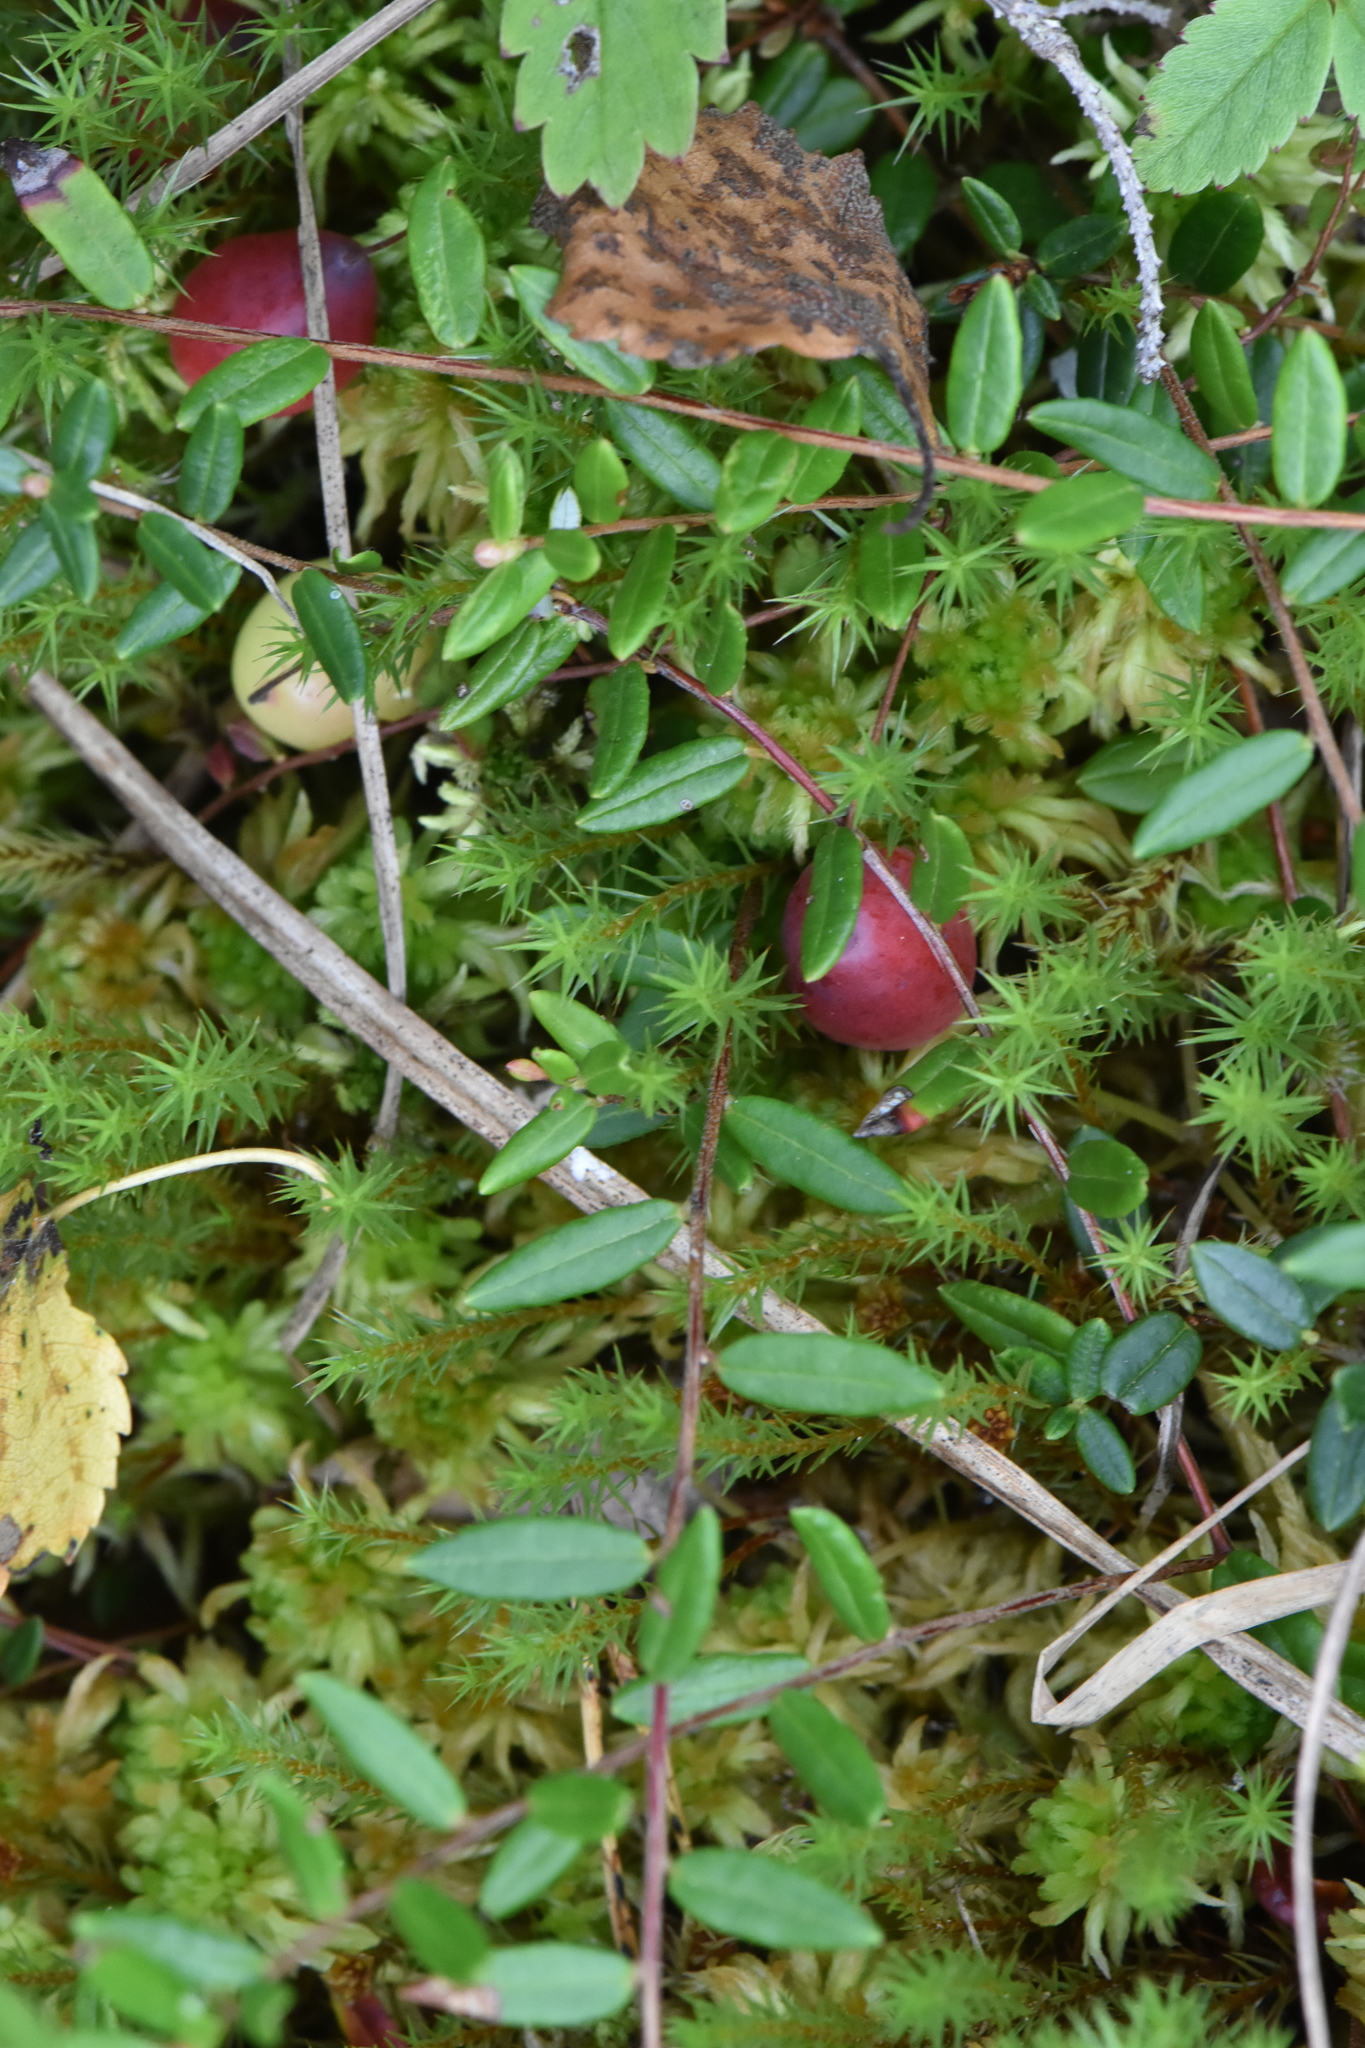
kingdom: Plantae
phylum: Tracheophyta
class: Magnoliopsida
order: Ericales
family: Ericaceae
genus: Vaccinium
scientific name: Vaccinium oxycoccos
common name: Cranberry
